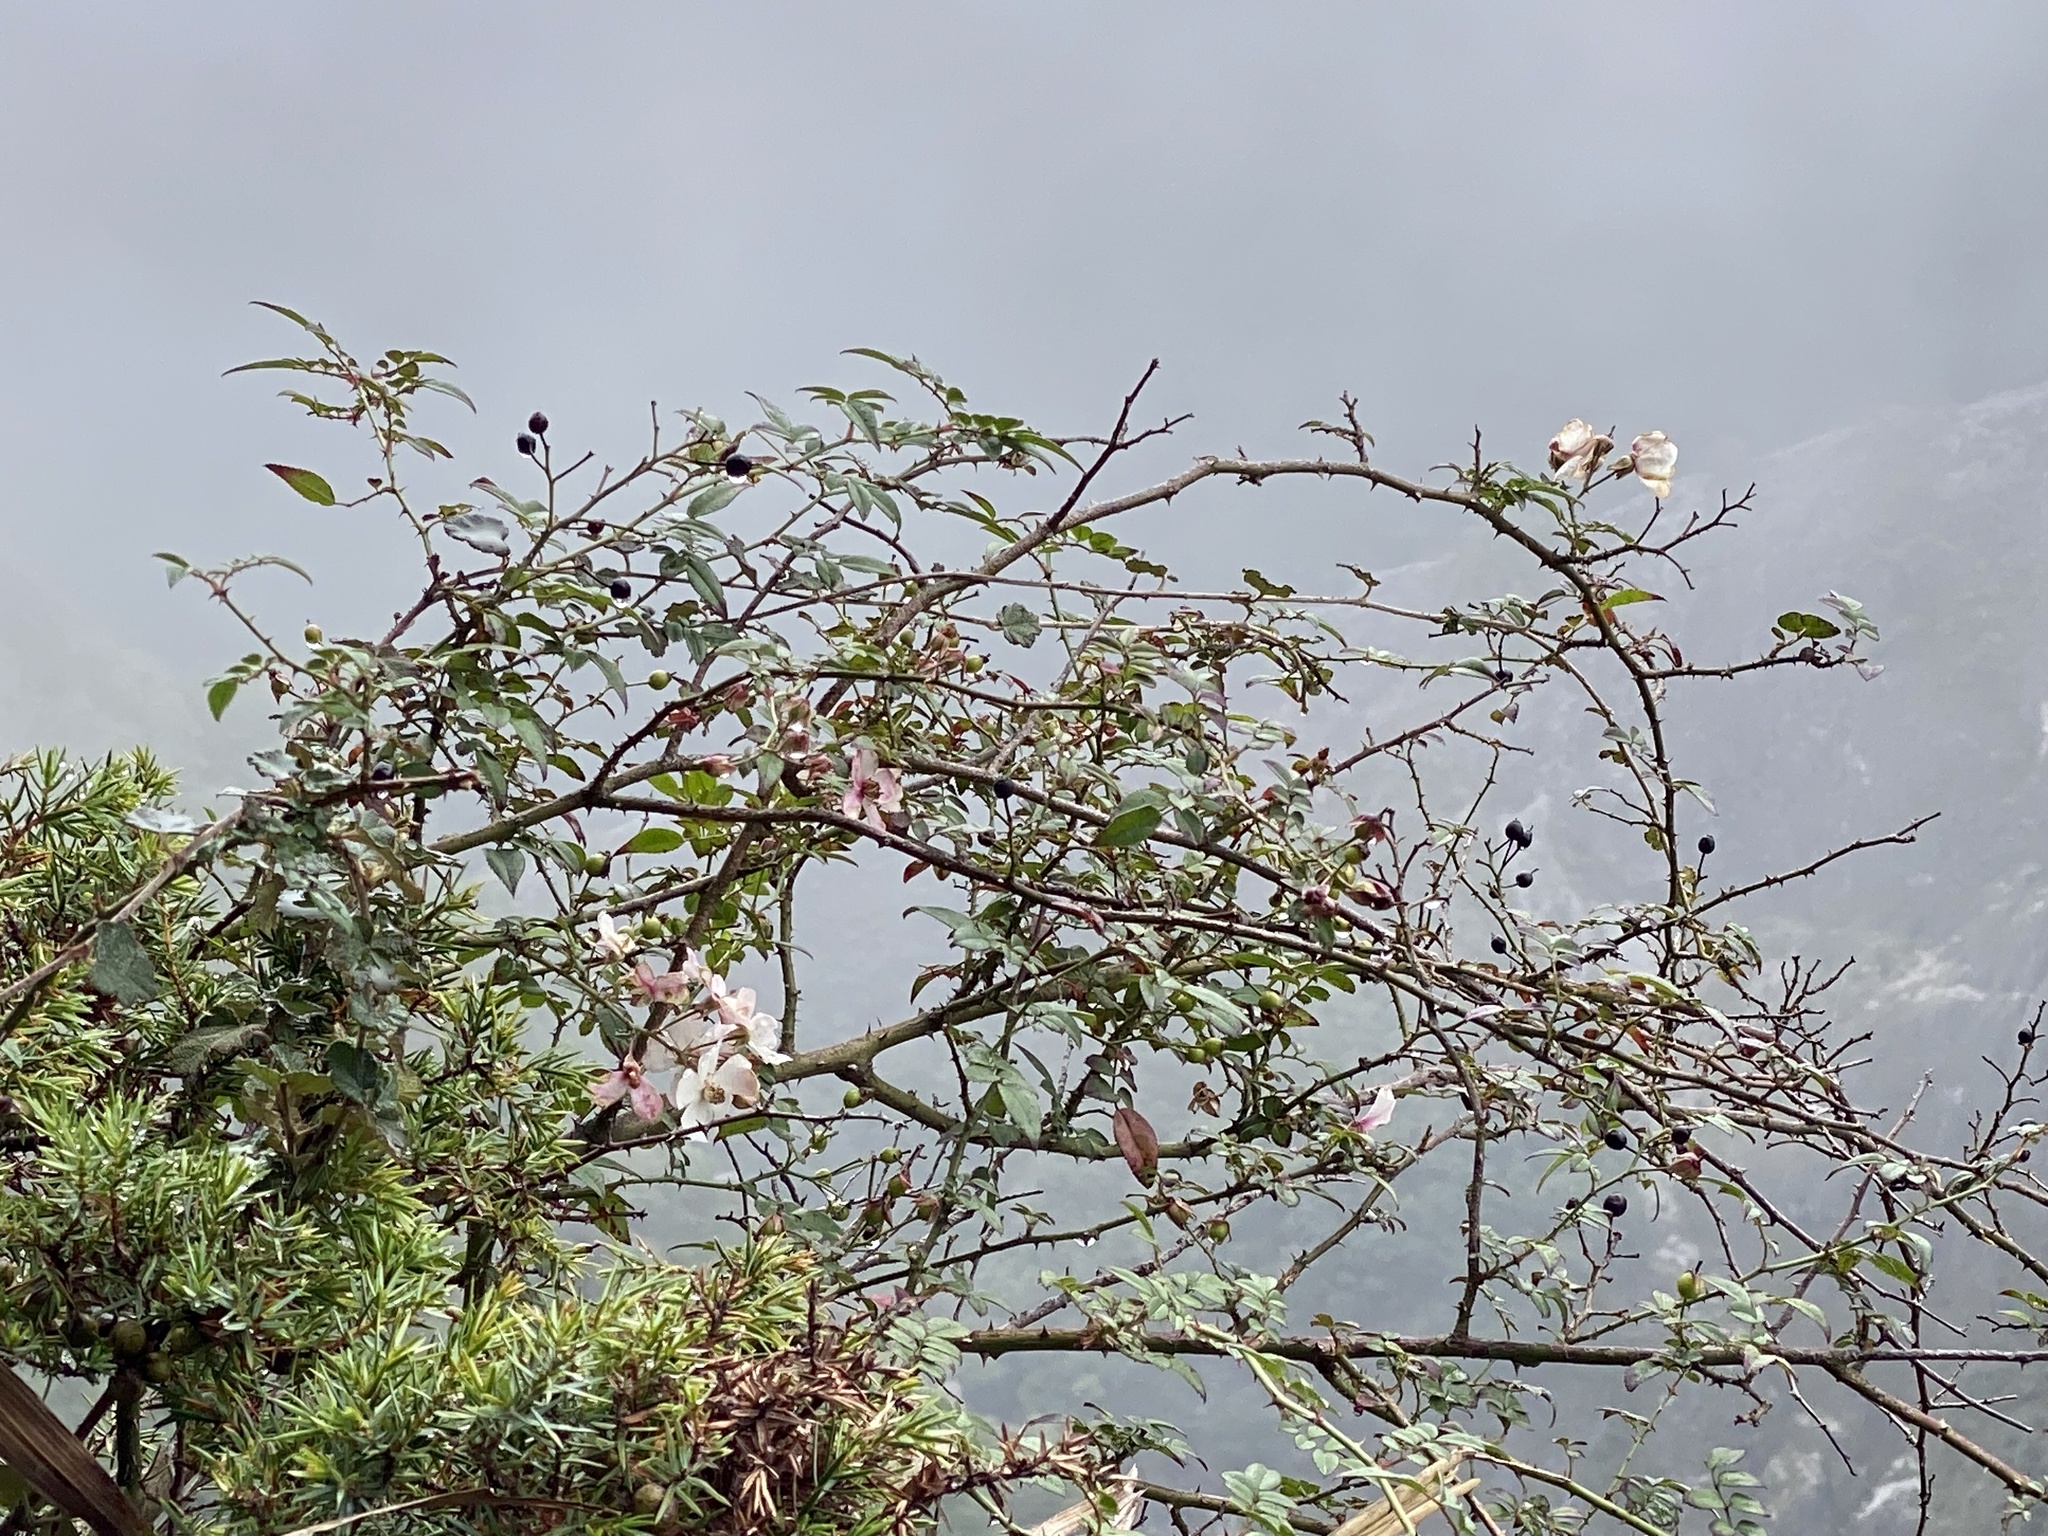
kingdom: Plantae
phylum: Tracheophyta
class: Magnoliopsida
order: Rosales
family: Rosaceae
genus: Rosa
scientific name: Rosa pricei
